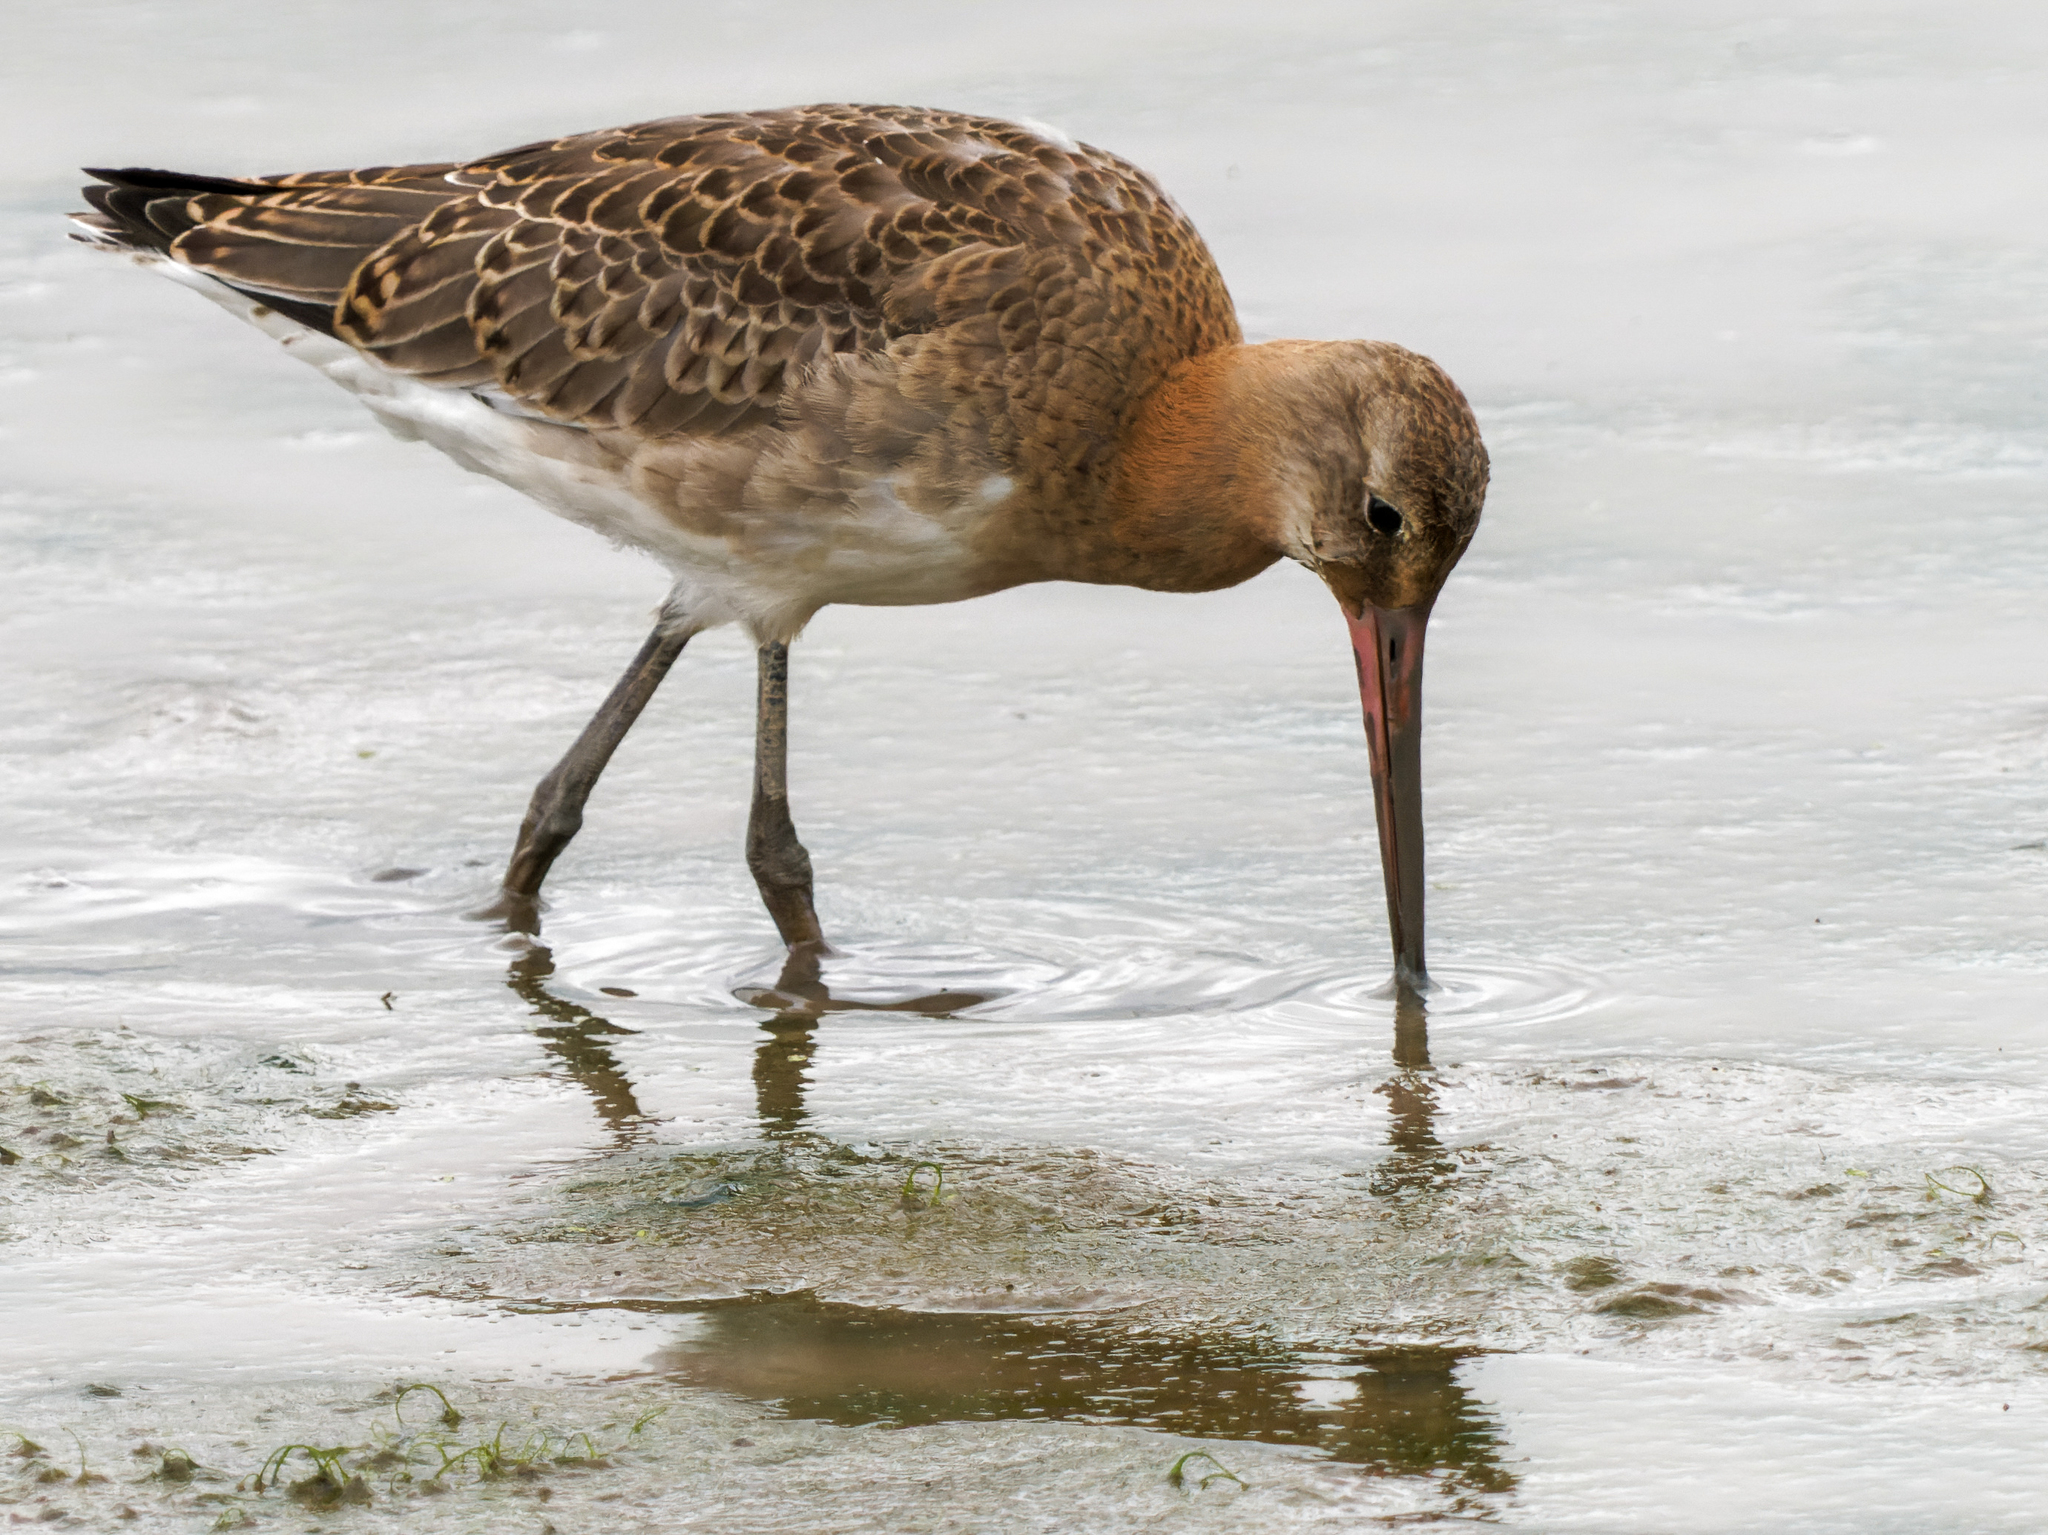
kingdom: Animalia
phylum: Chordata
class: Aves
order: Charadriiformes
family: Scolopacidae
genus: Limosa
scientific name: Limosa limosa
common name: Black-tailed godwit
